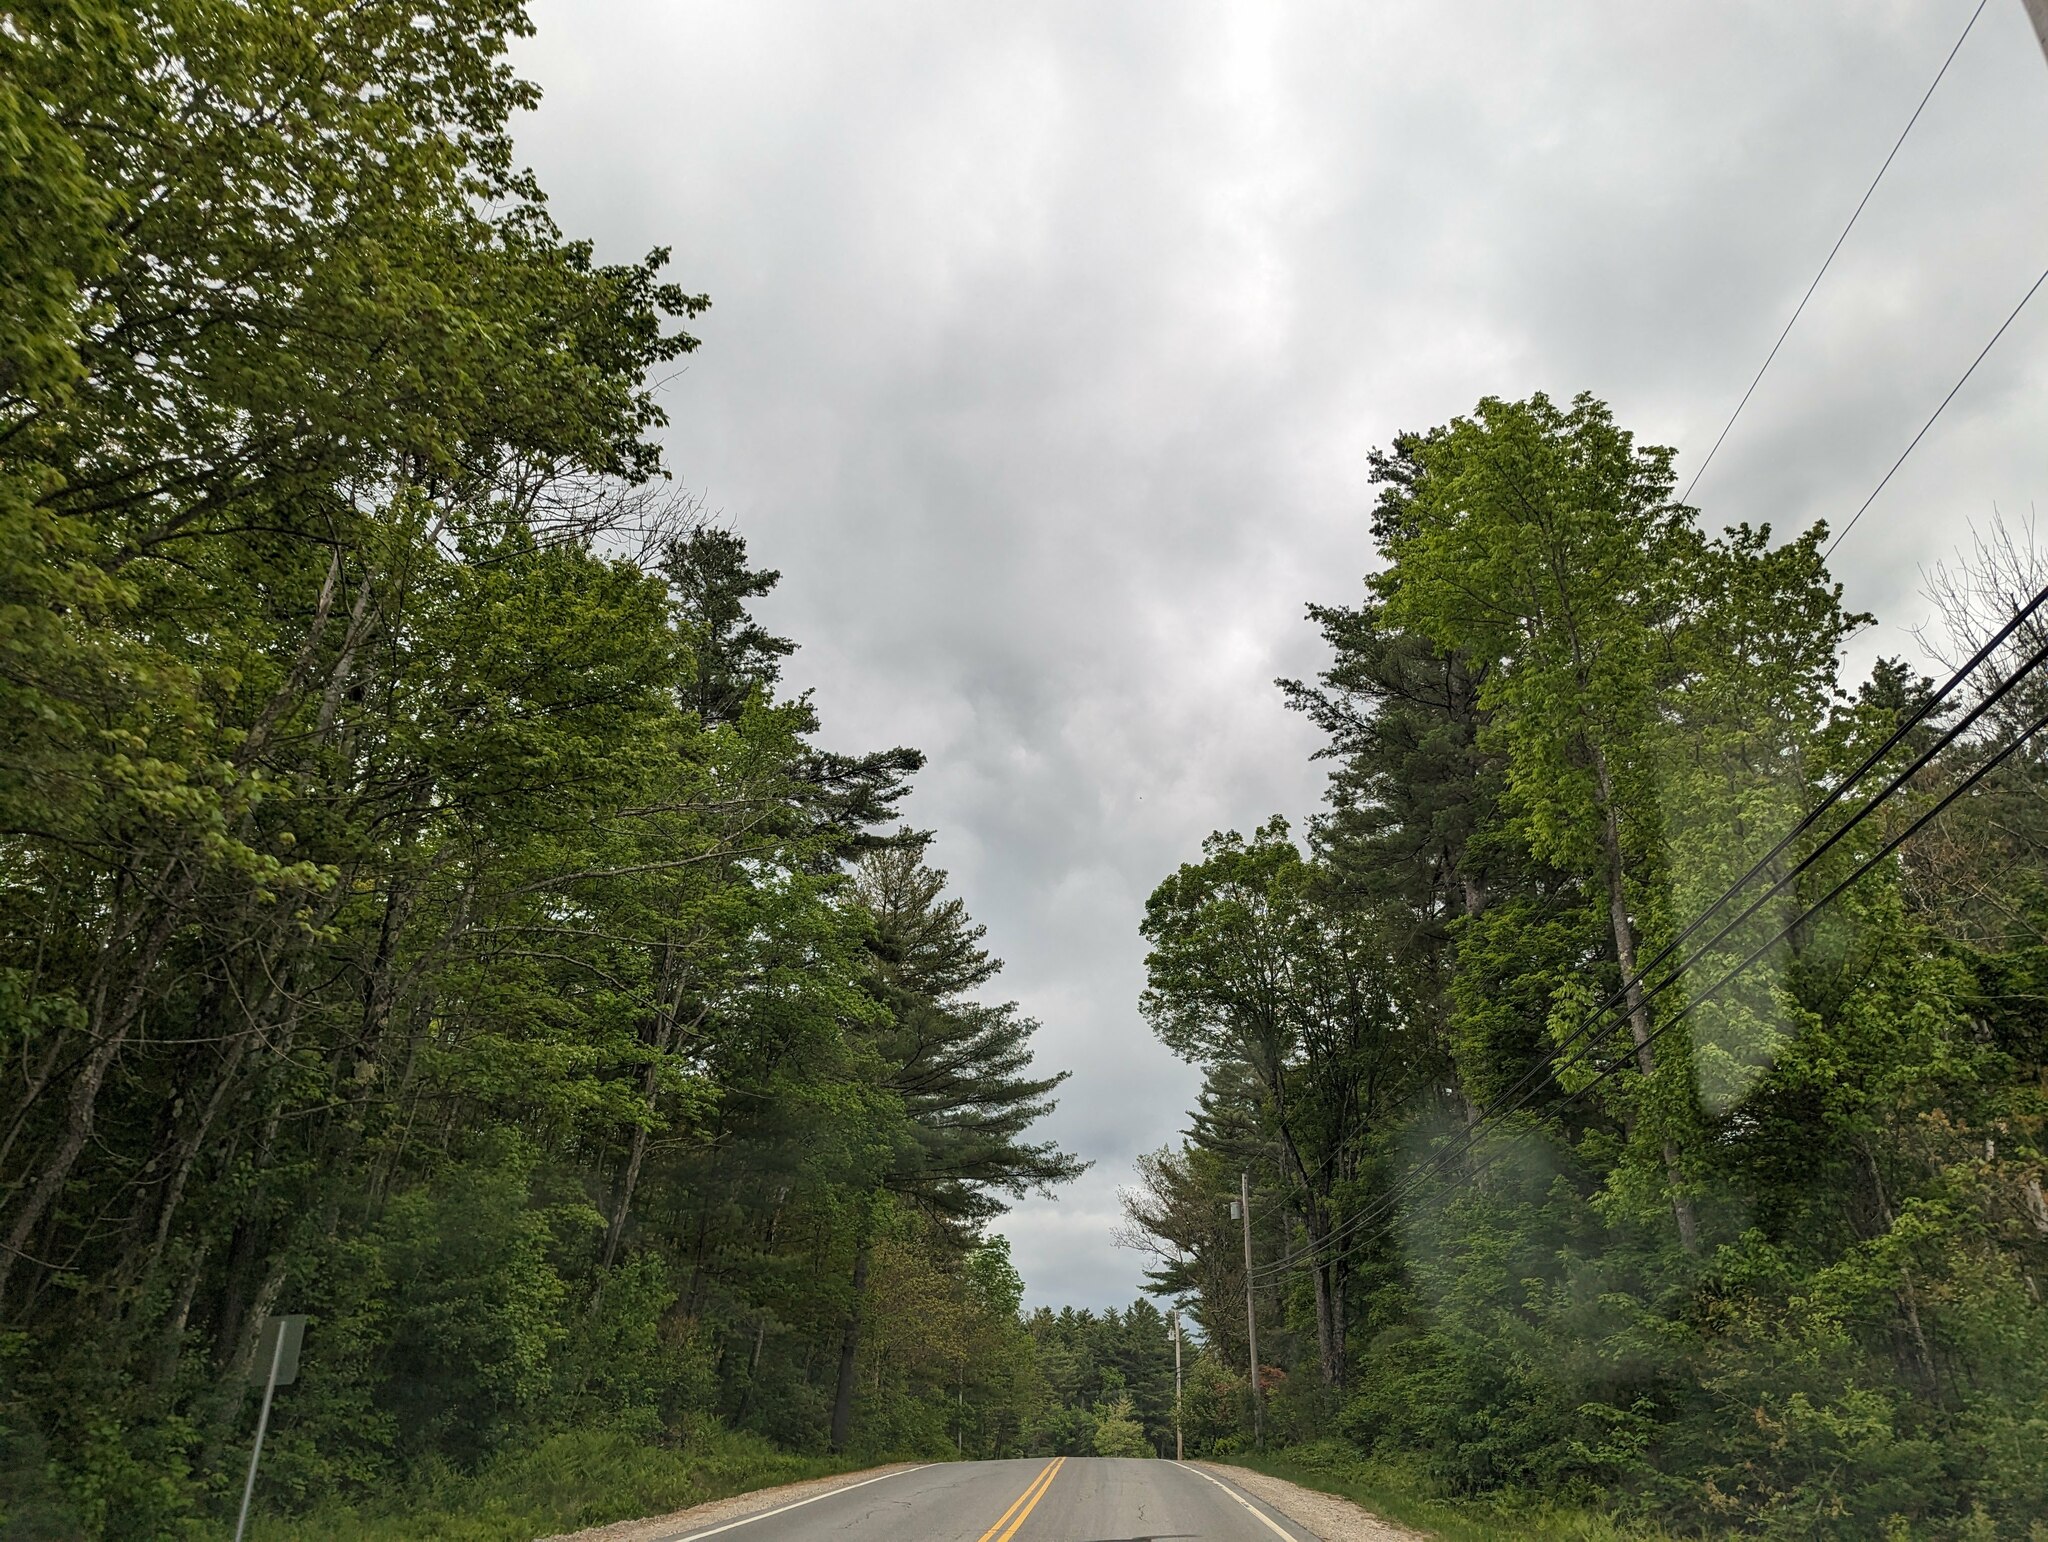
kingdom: Plantae
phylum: Tracheophyta
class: Pinopsida
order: Pinales
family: Pinaceae
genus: Pinus
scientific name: Pinus strobus
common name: Weymouth pine
